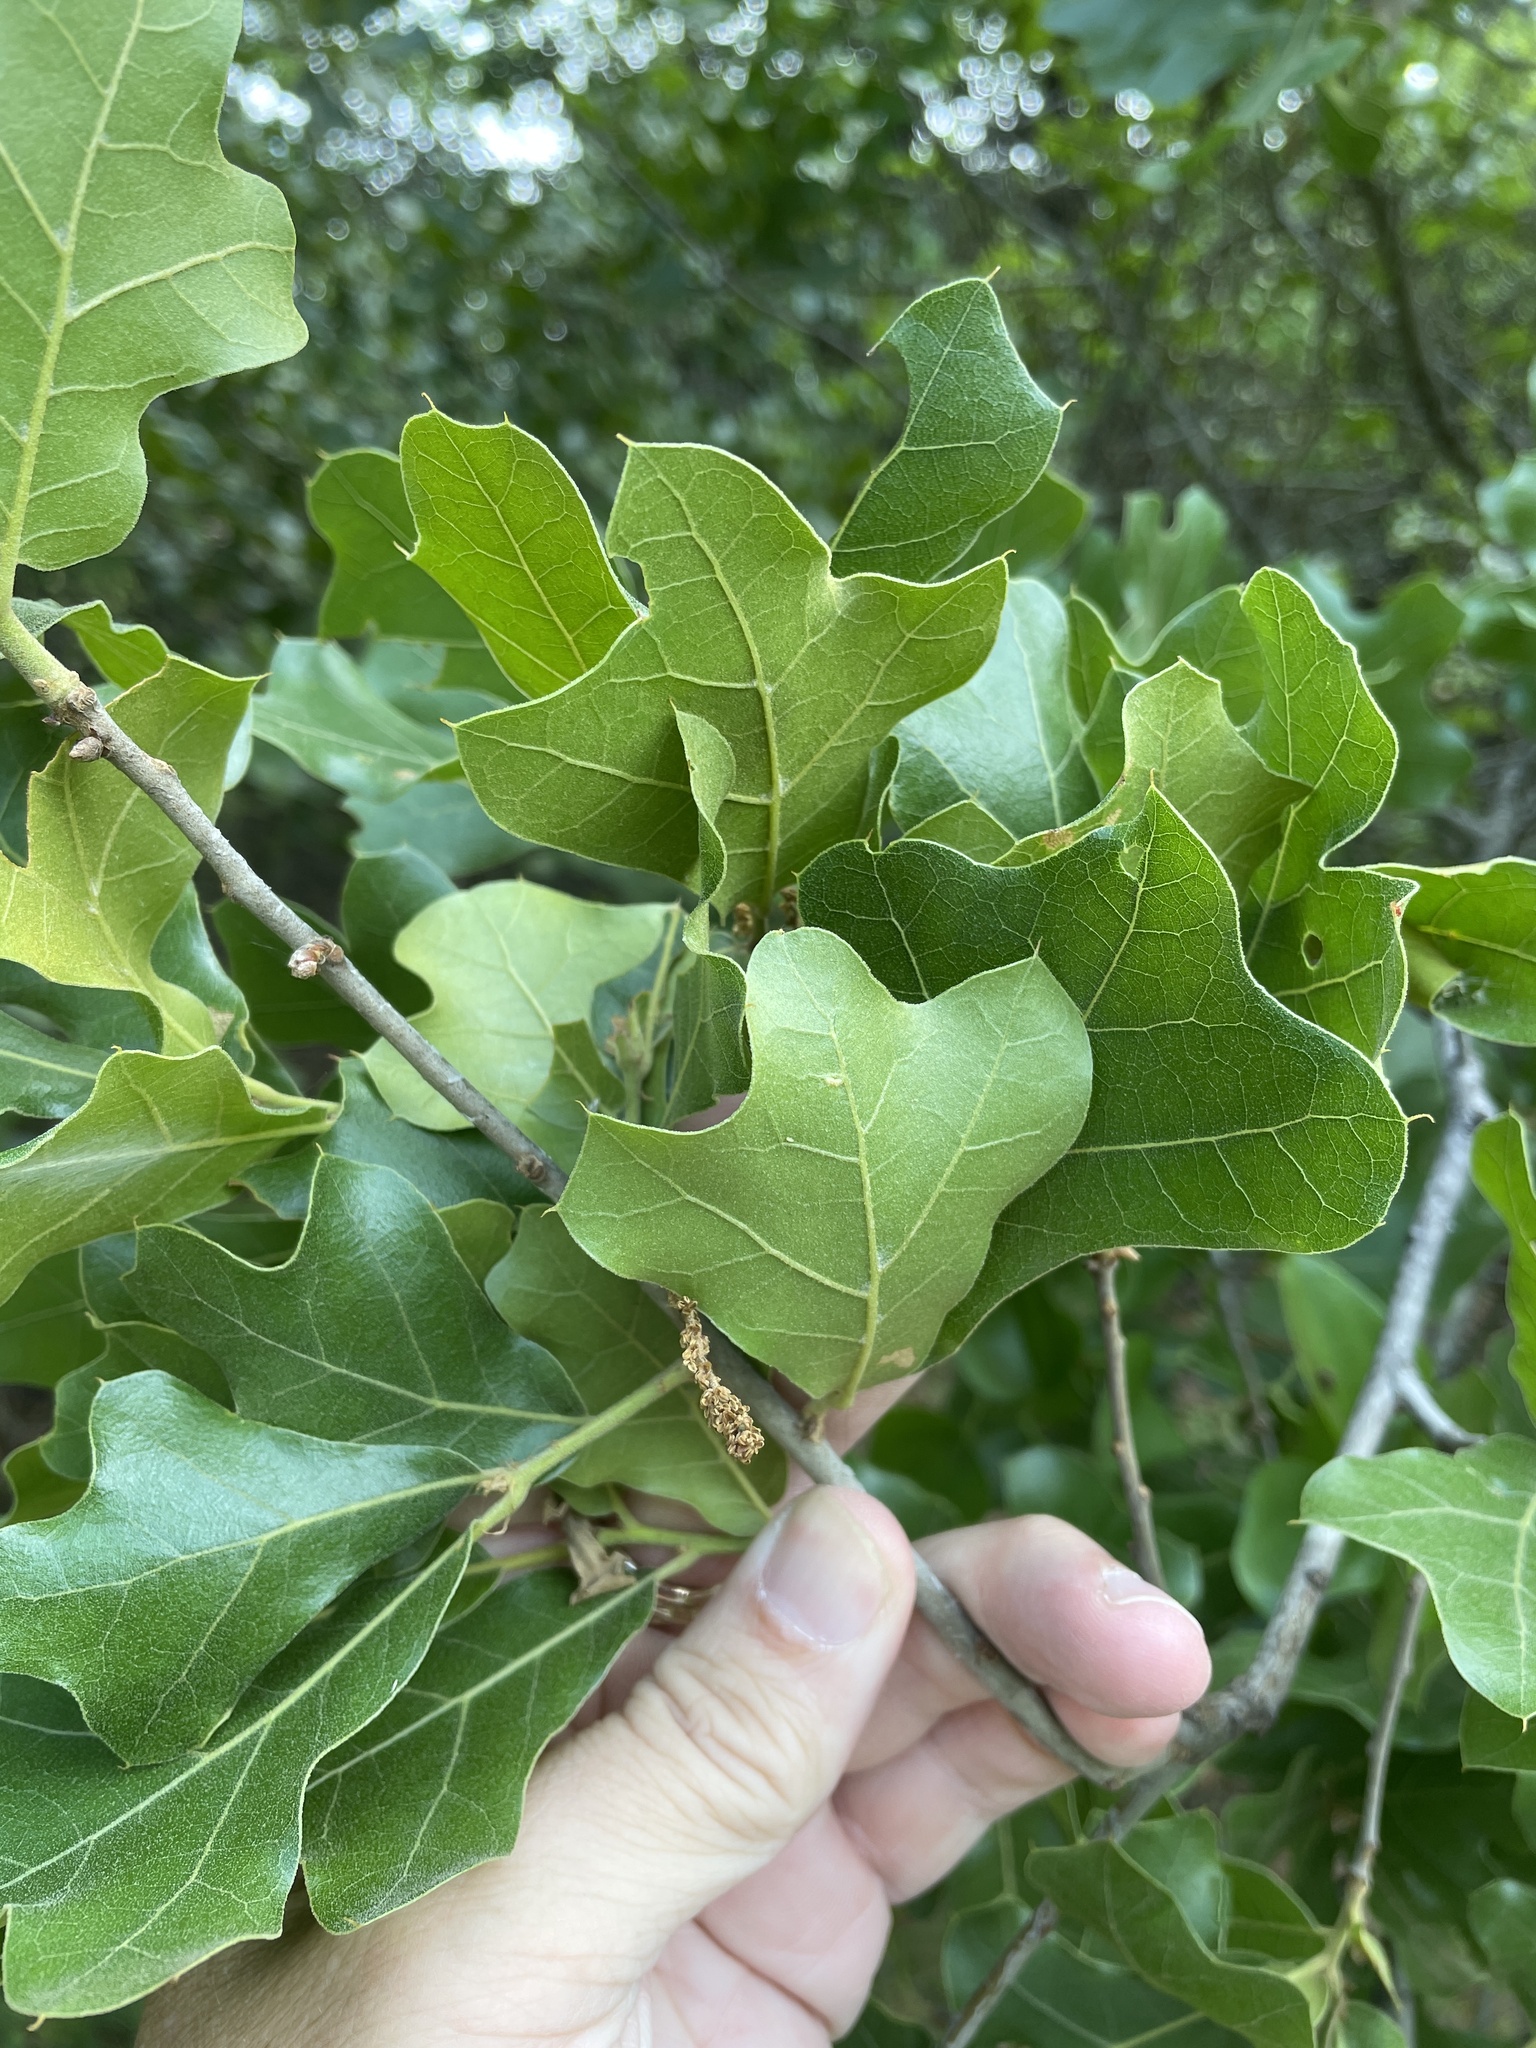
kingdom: Plantae
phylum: Tracheophyta
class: Magnoliopsida
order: Fagales
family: Fagaceae
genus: Quercus
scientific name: Quercus marilandica
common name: Blackjack oak
